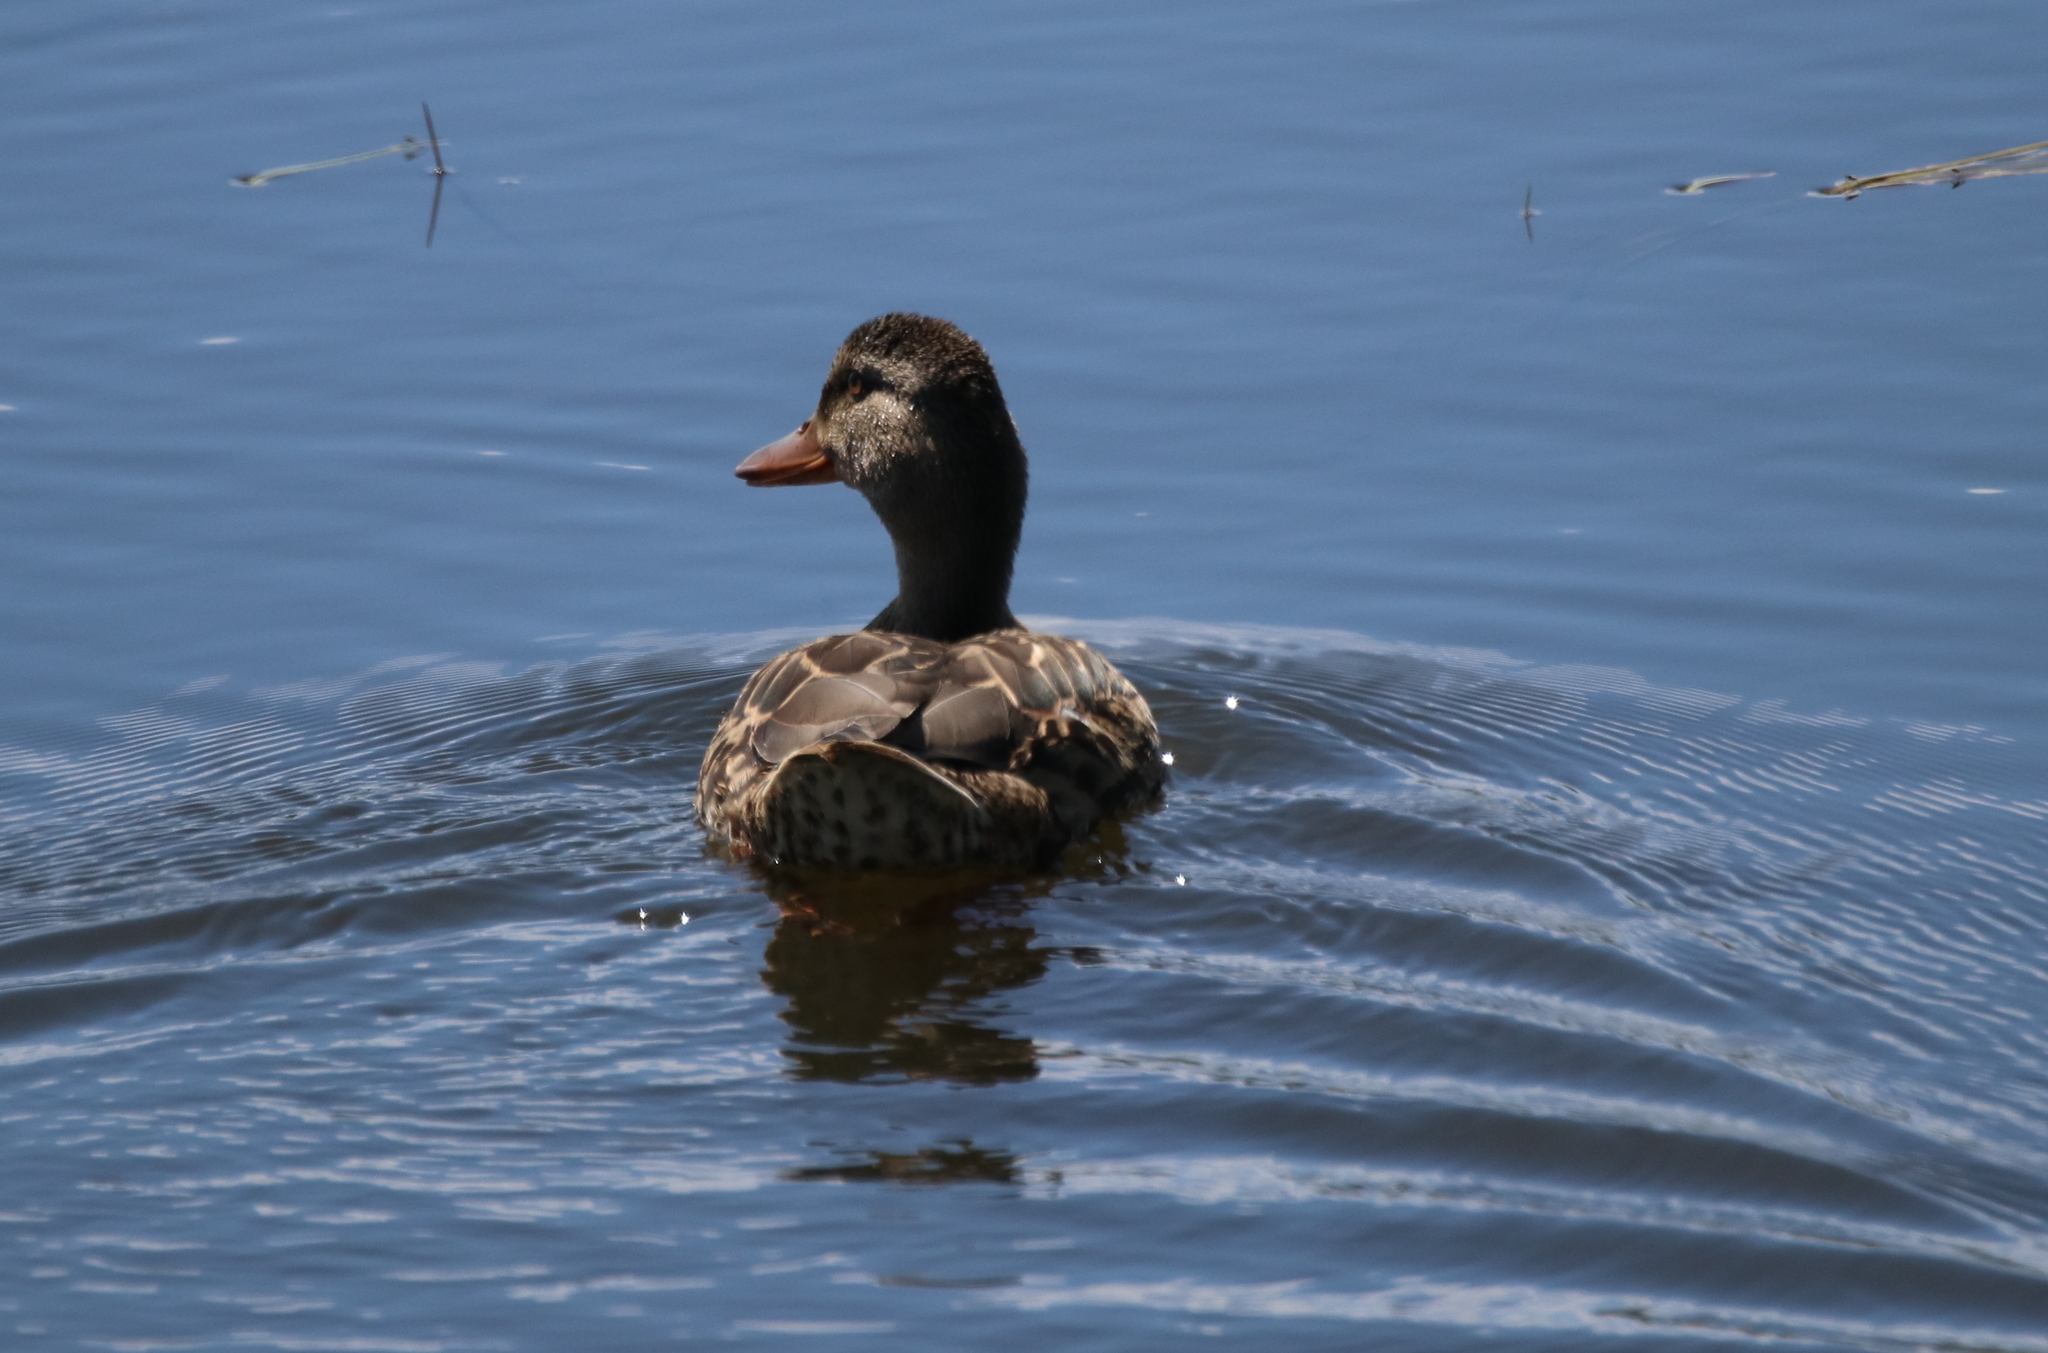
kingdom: Animalia
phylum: Chordata
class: Aves
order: Anseriformes
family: Anatidae
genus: Anas
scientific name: Anas platyrhynchos
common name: Mallard
